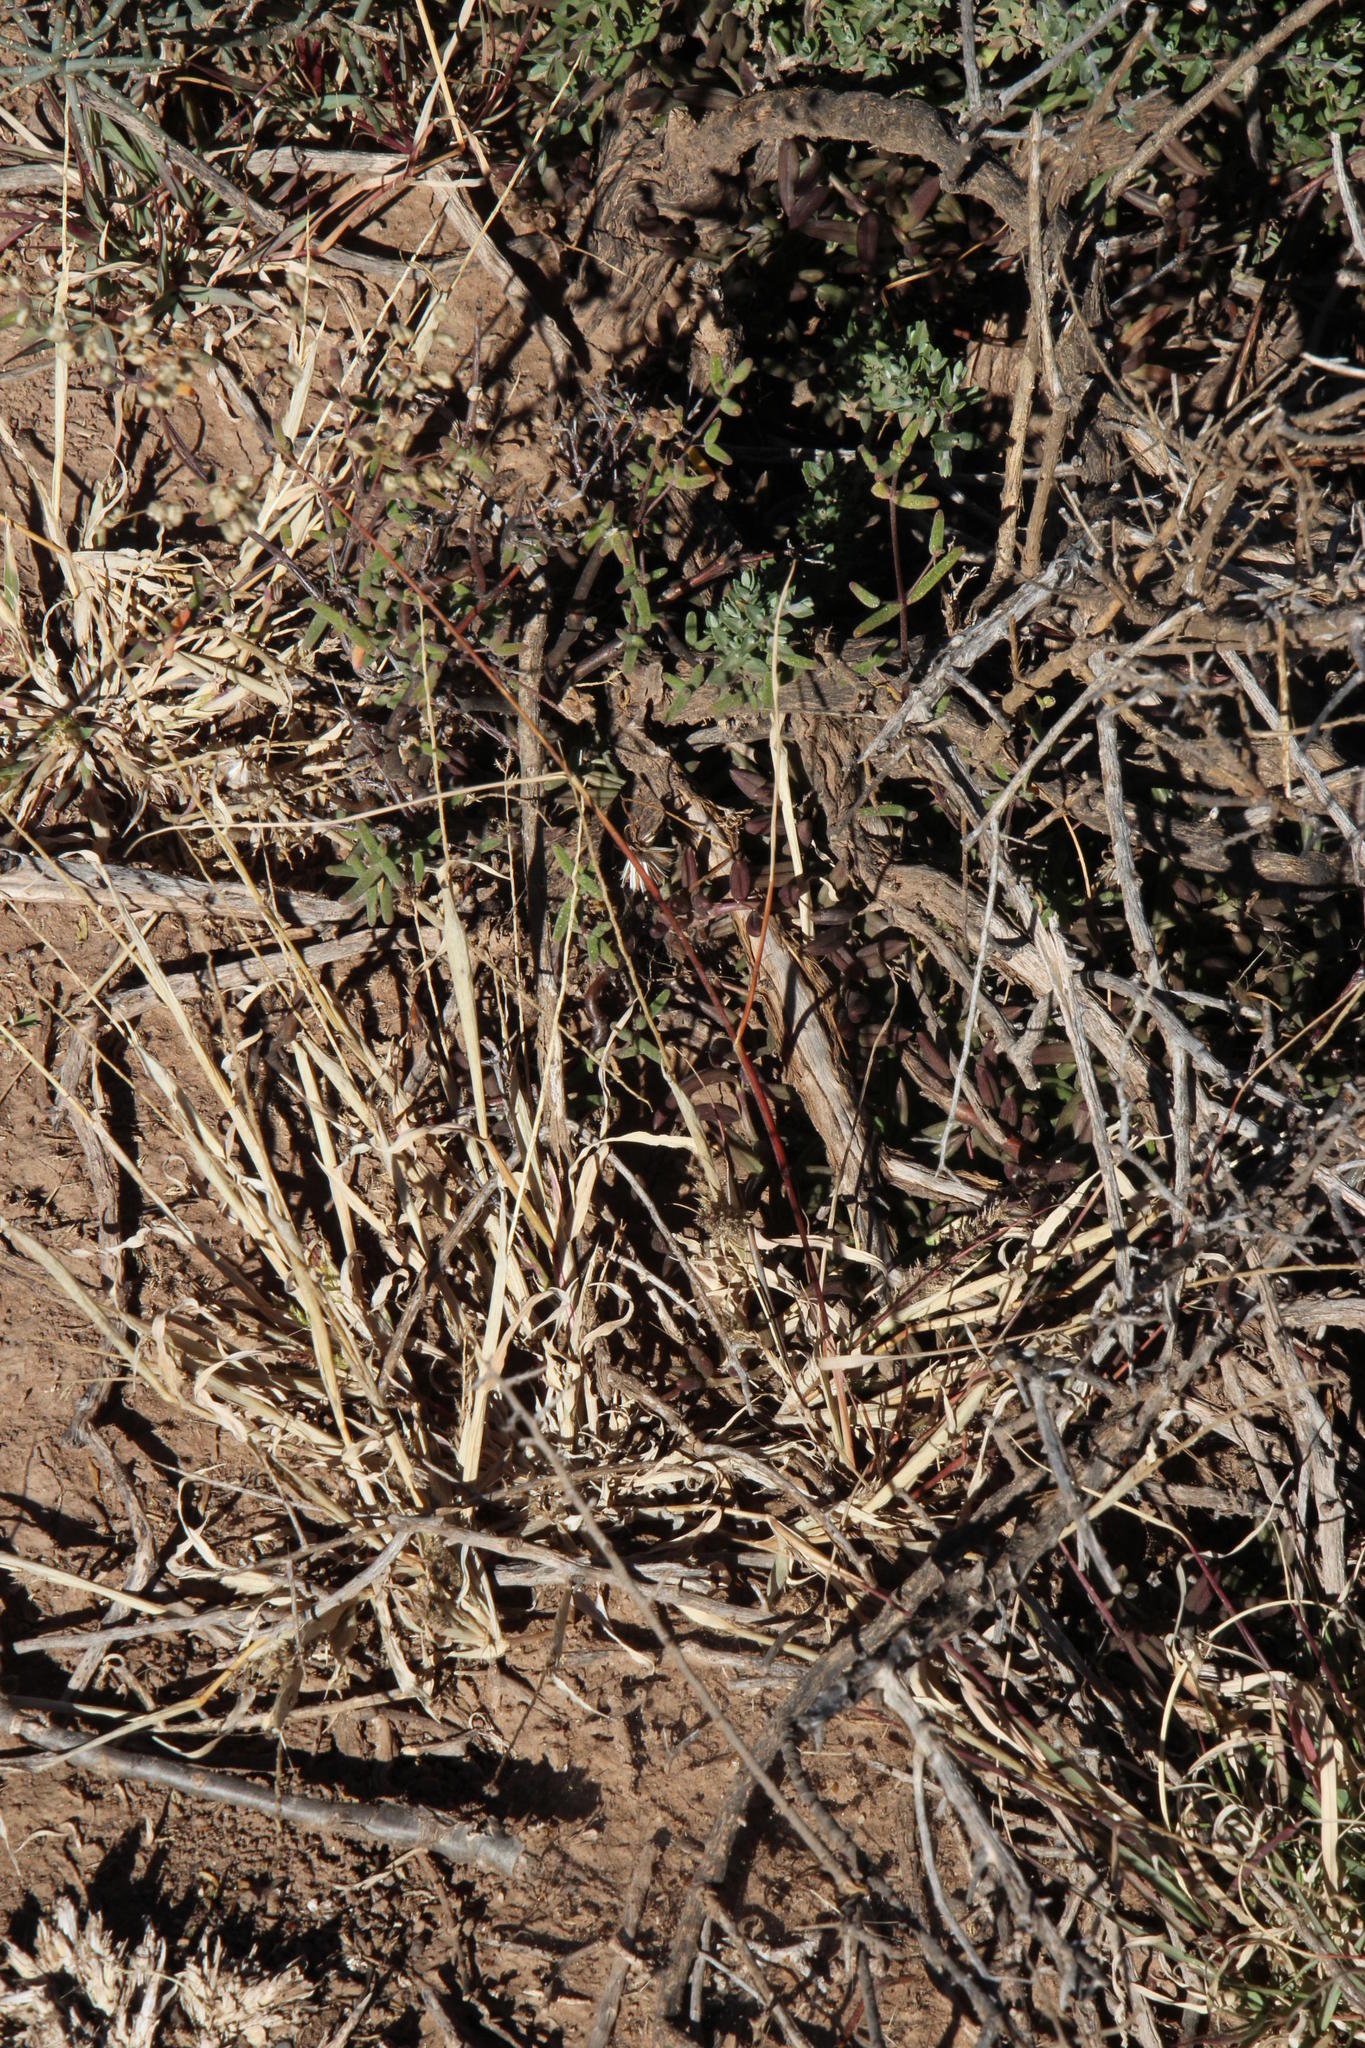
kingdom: Plantae
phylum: Tracheophyta
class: Liliopsida
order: Poales
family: Poaceae
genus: Eragrostis
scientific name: Eragrostis obtusa
